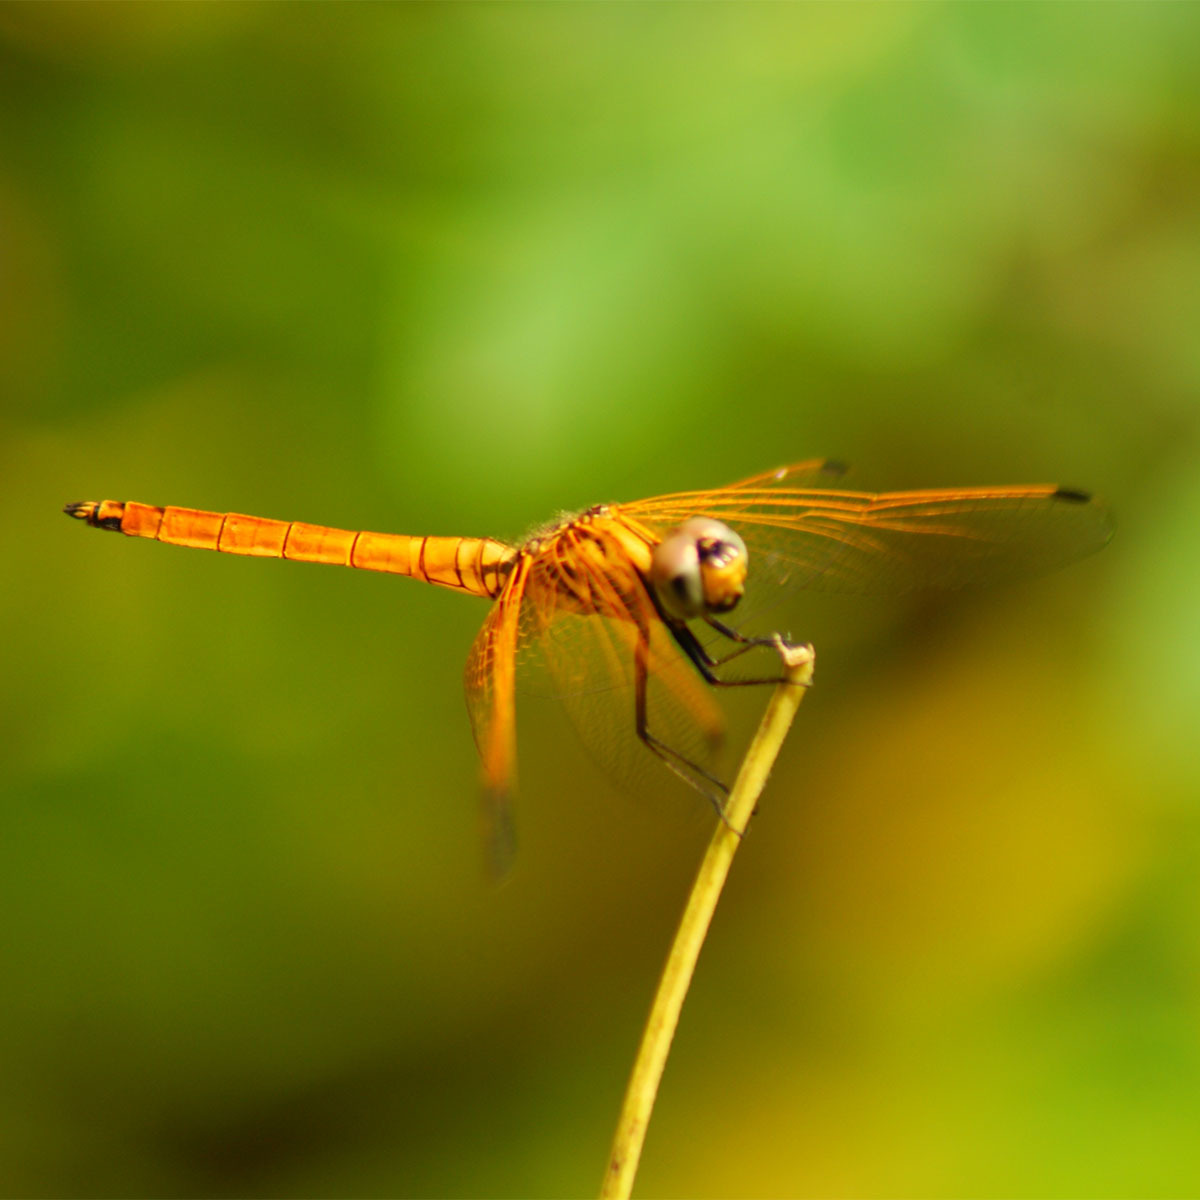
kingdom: Animalia
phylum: Arthropoda
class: Insecta
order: Odonata
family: Libellulidae
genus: Trithemis
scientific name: Trithemis aurora
